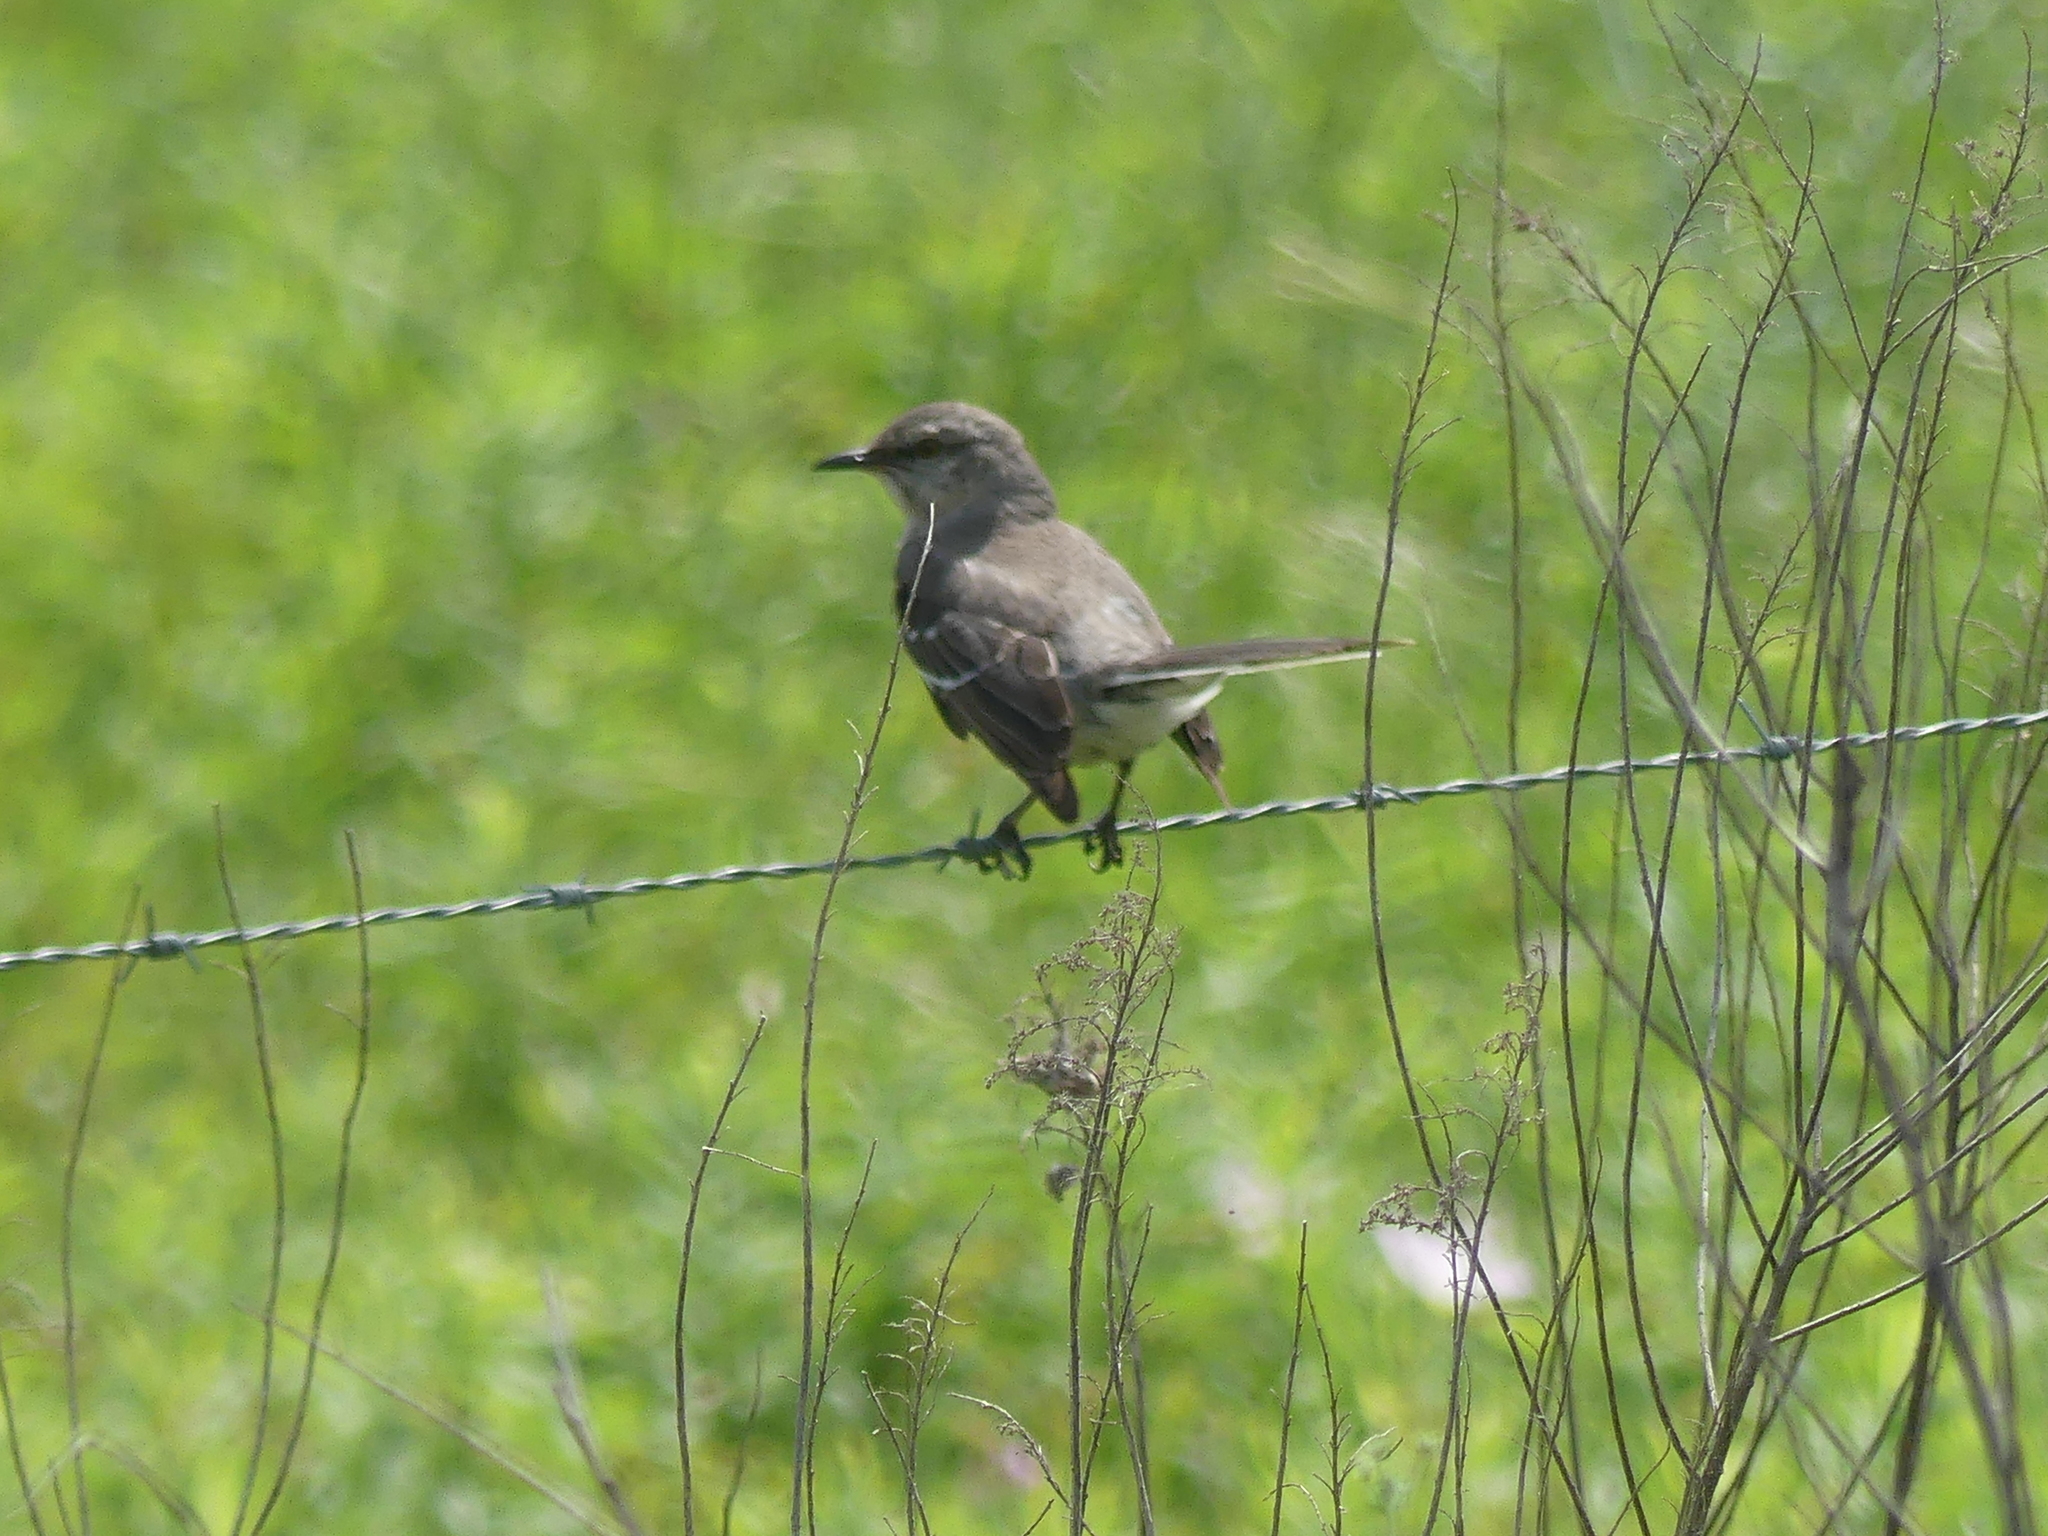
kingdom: Animalia
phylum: Chordata
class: Aves
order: Passeriformes
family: Mimidae
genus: Mimus
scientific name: Mimus polyglottos
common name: Northern mockingbird
